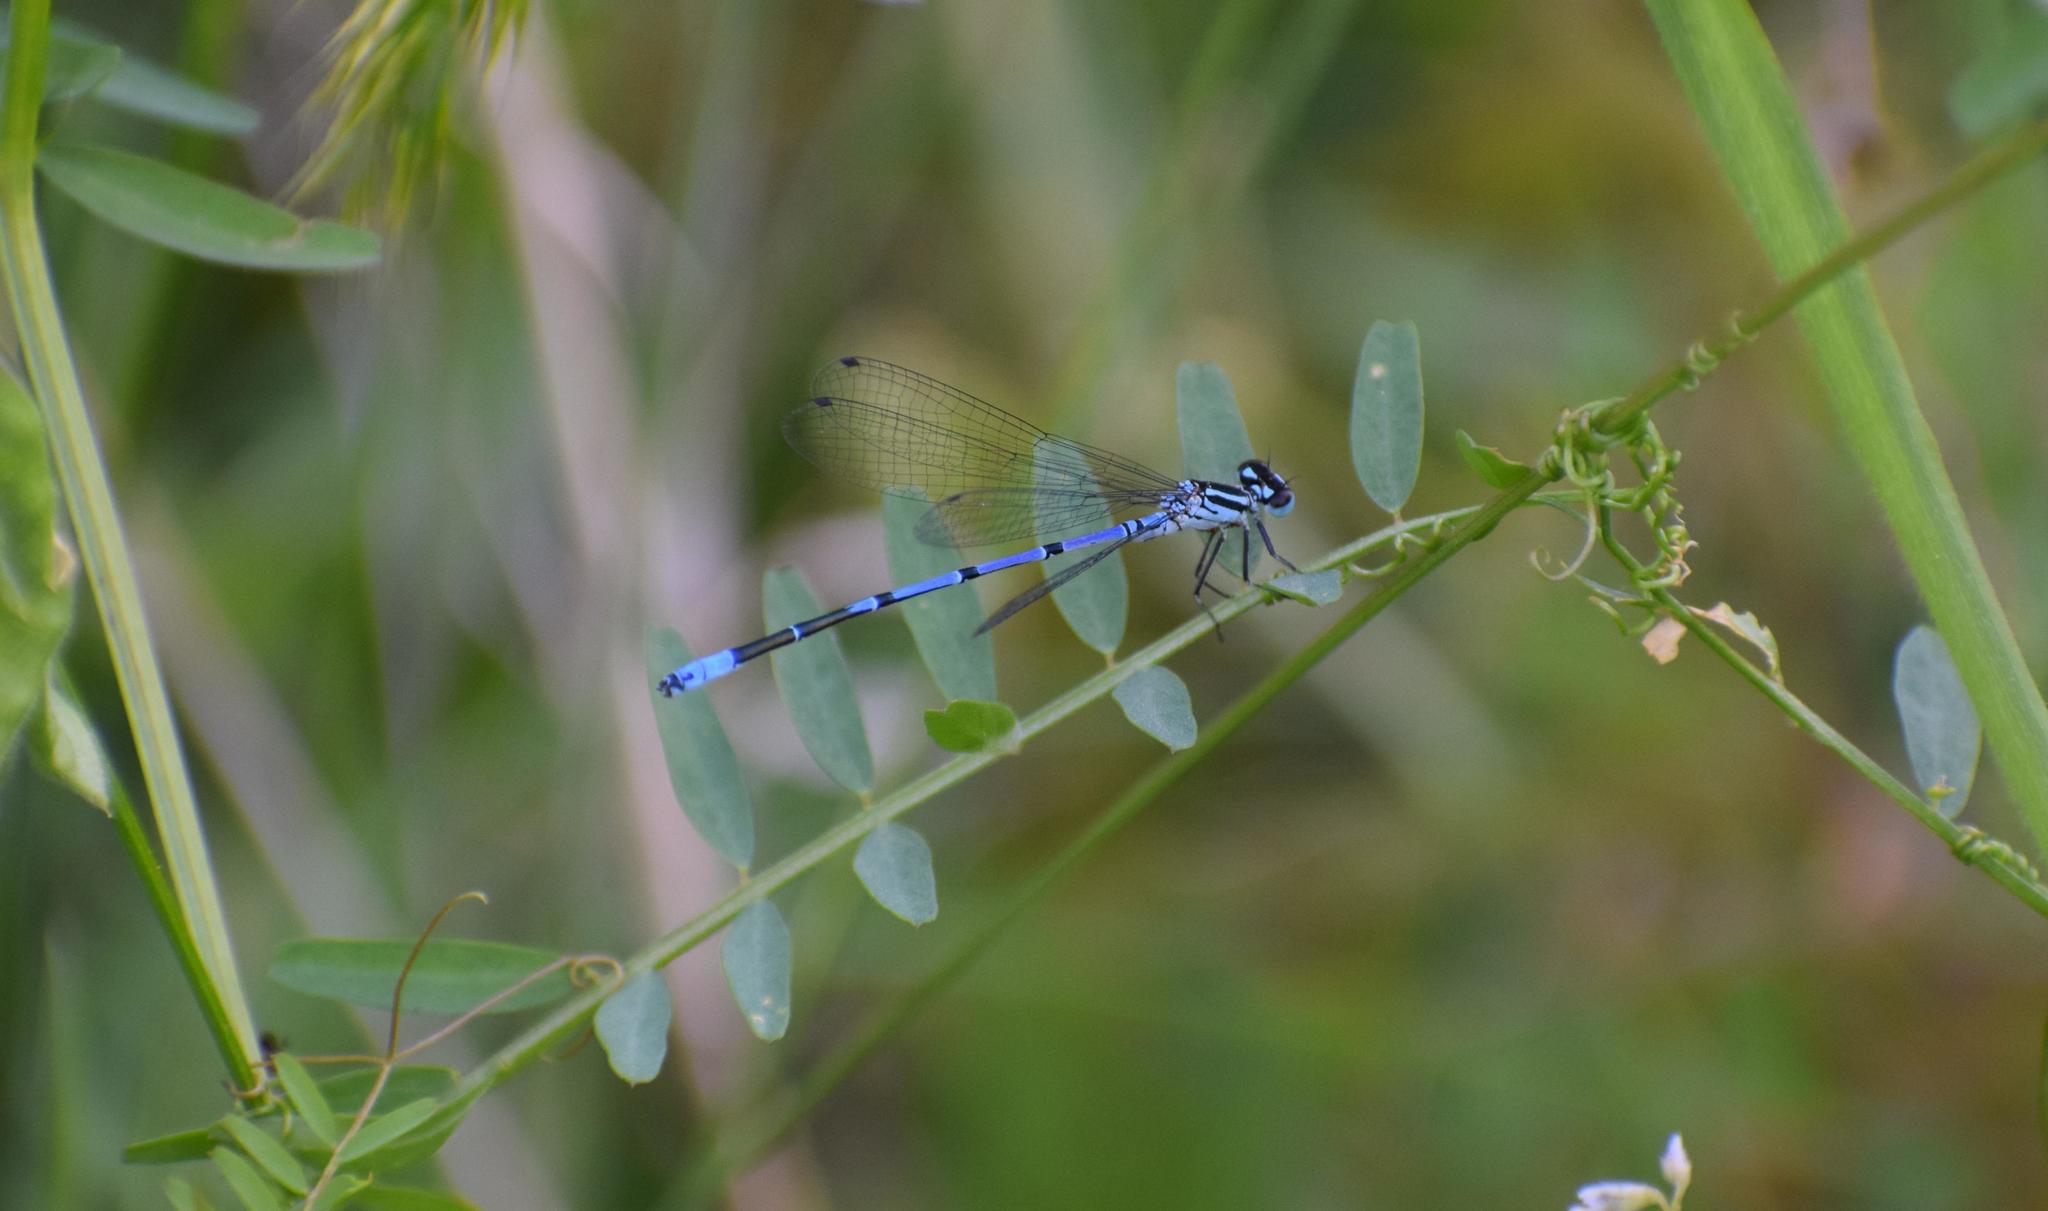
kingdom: Animalia
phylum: Arthropoda
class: Insecta
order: Odonata
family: Coenagrionidae
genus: Coenagrion
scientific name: Coenagrion puella
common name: Azure damselfly
